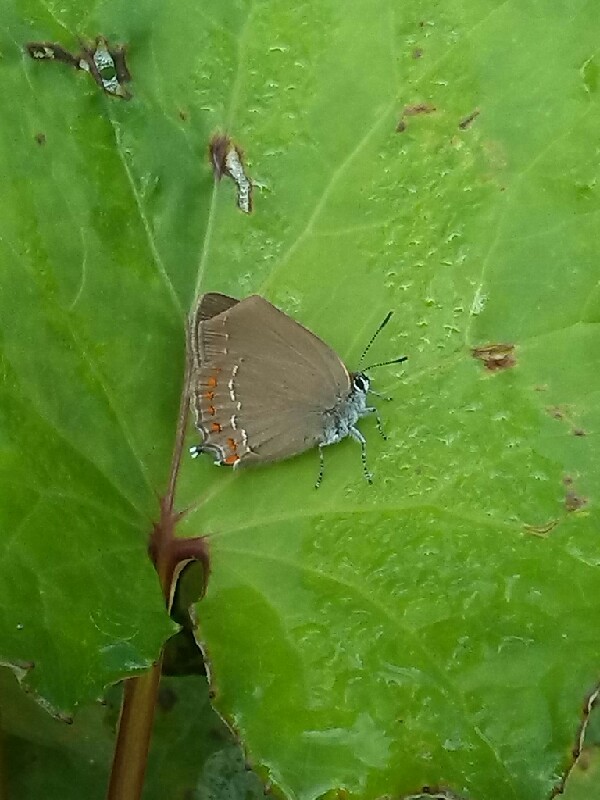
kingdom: Animalia
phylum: Arthropoda
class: Insecta
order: Lepidoptera
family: Lycaenidae
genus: Fixsenia
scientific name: Fixsenia esculi
